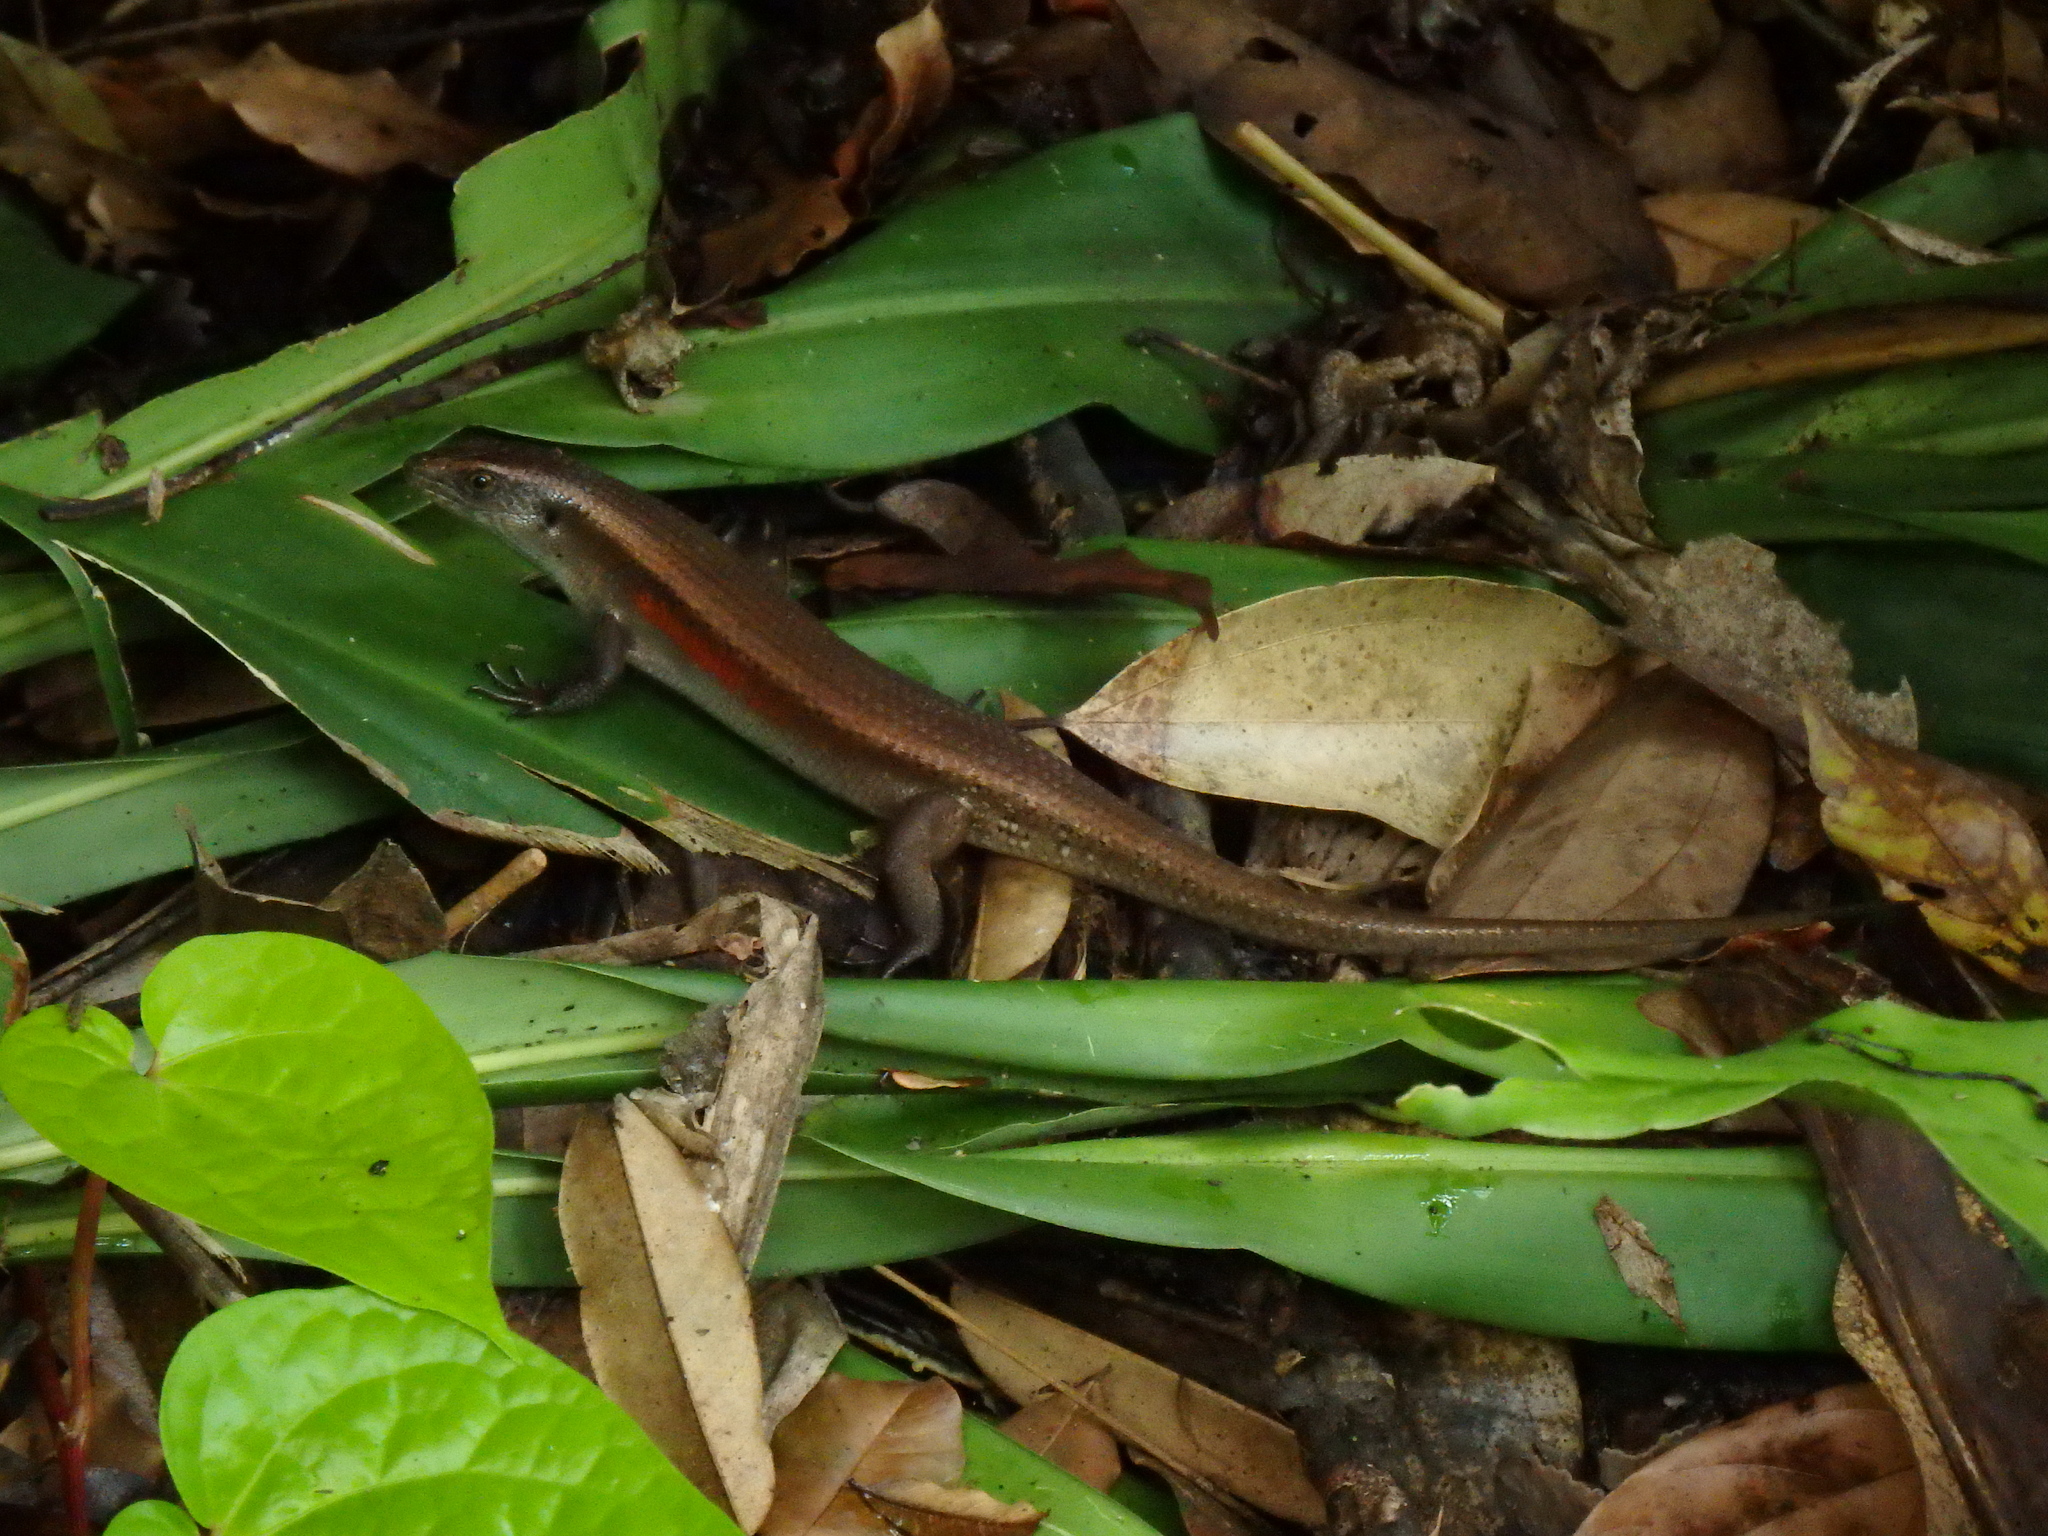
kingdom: Animalia
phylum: Chordata
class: Squamata
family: Scincidae
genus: Eutropis
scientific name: Eutropis multifasciata
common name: Common mabuya
